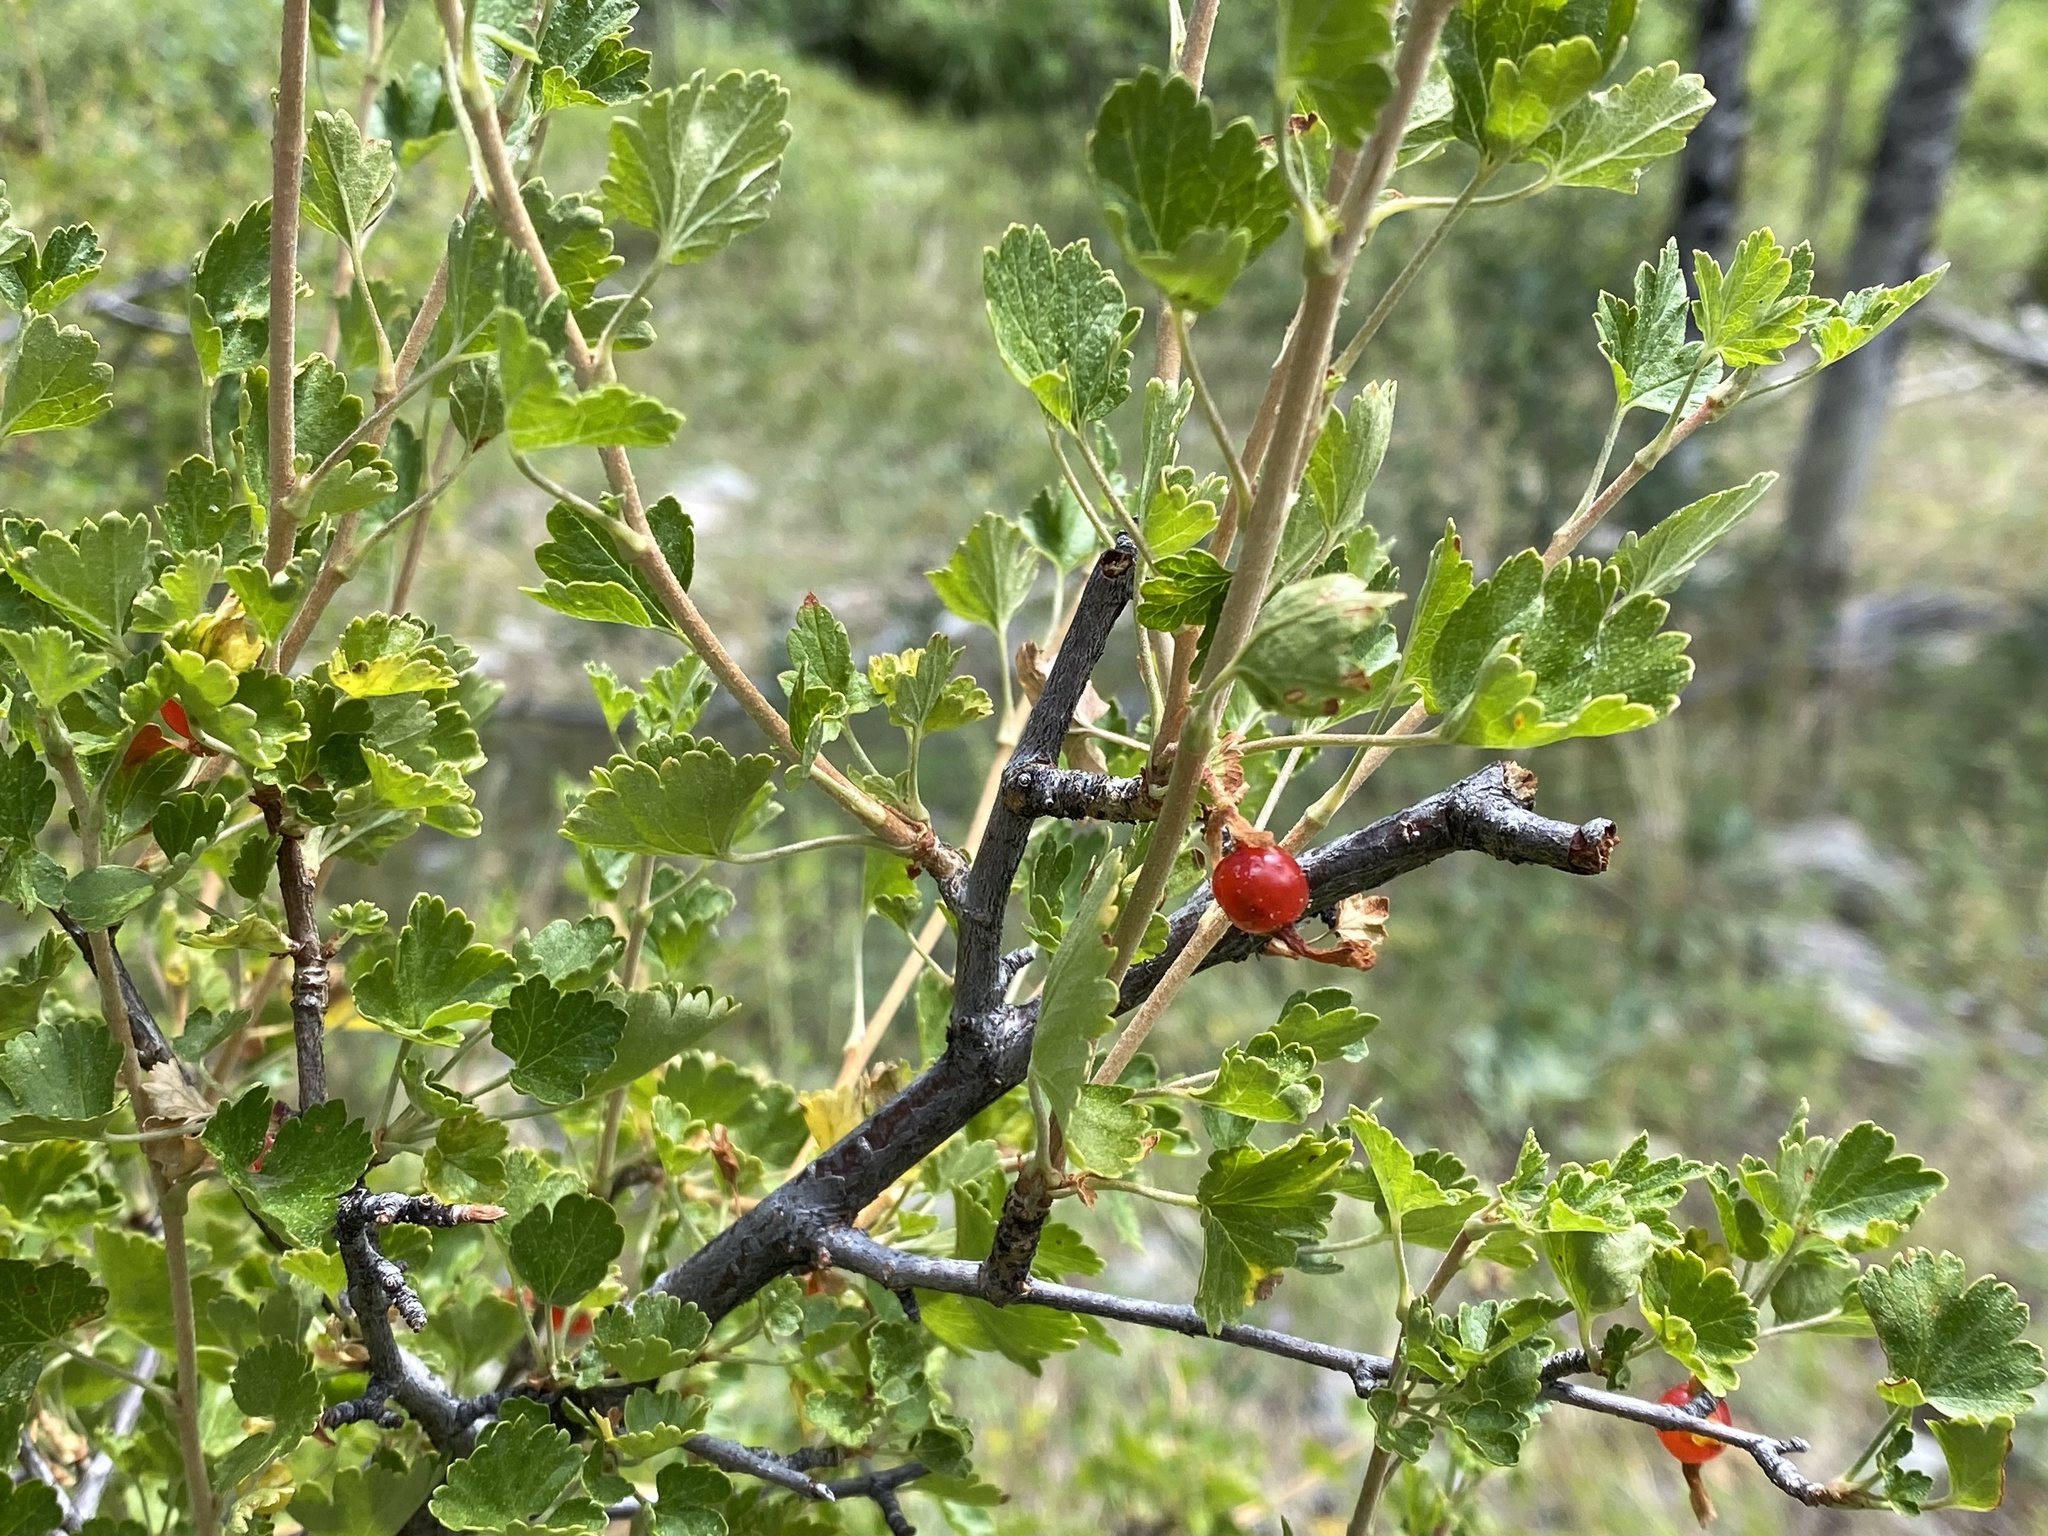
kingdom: Plantae
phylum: Tracheophyta
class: Magnoliopsida
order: Saxifragales
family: Grossulariaceae
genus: Ribes
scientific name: Ribes cereum
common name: Wax currant
